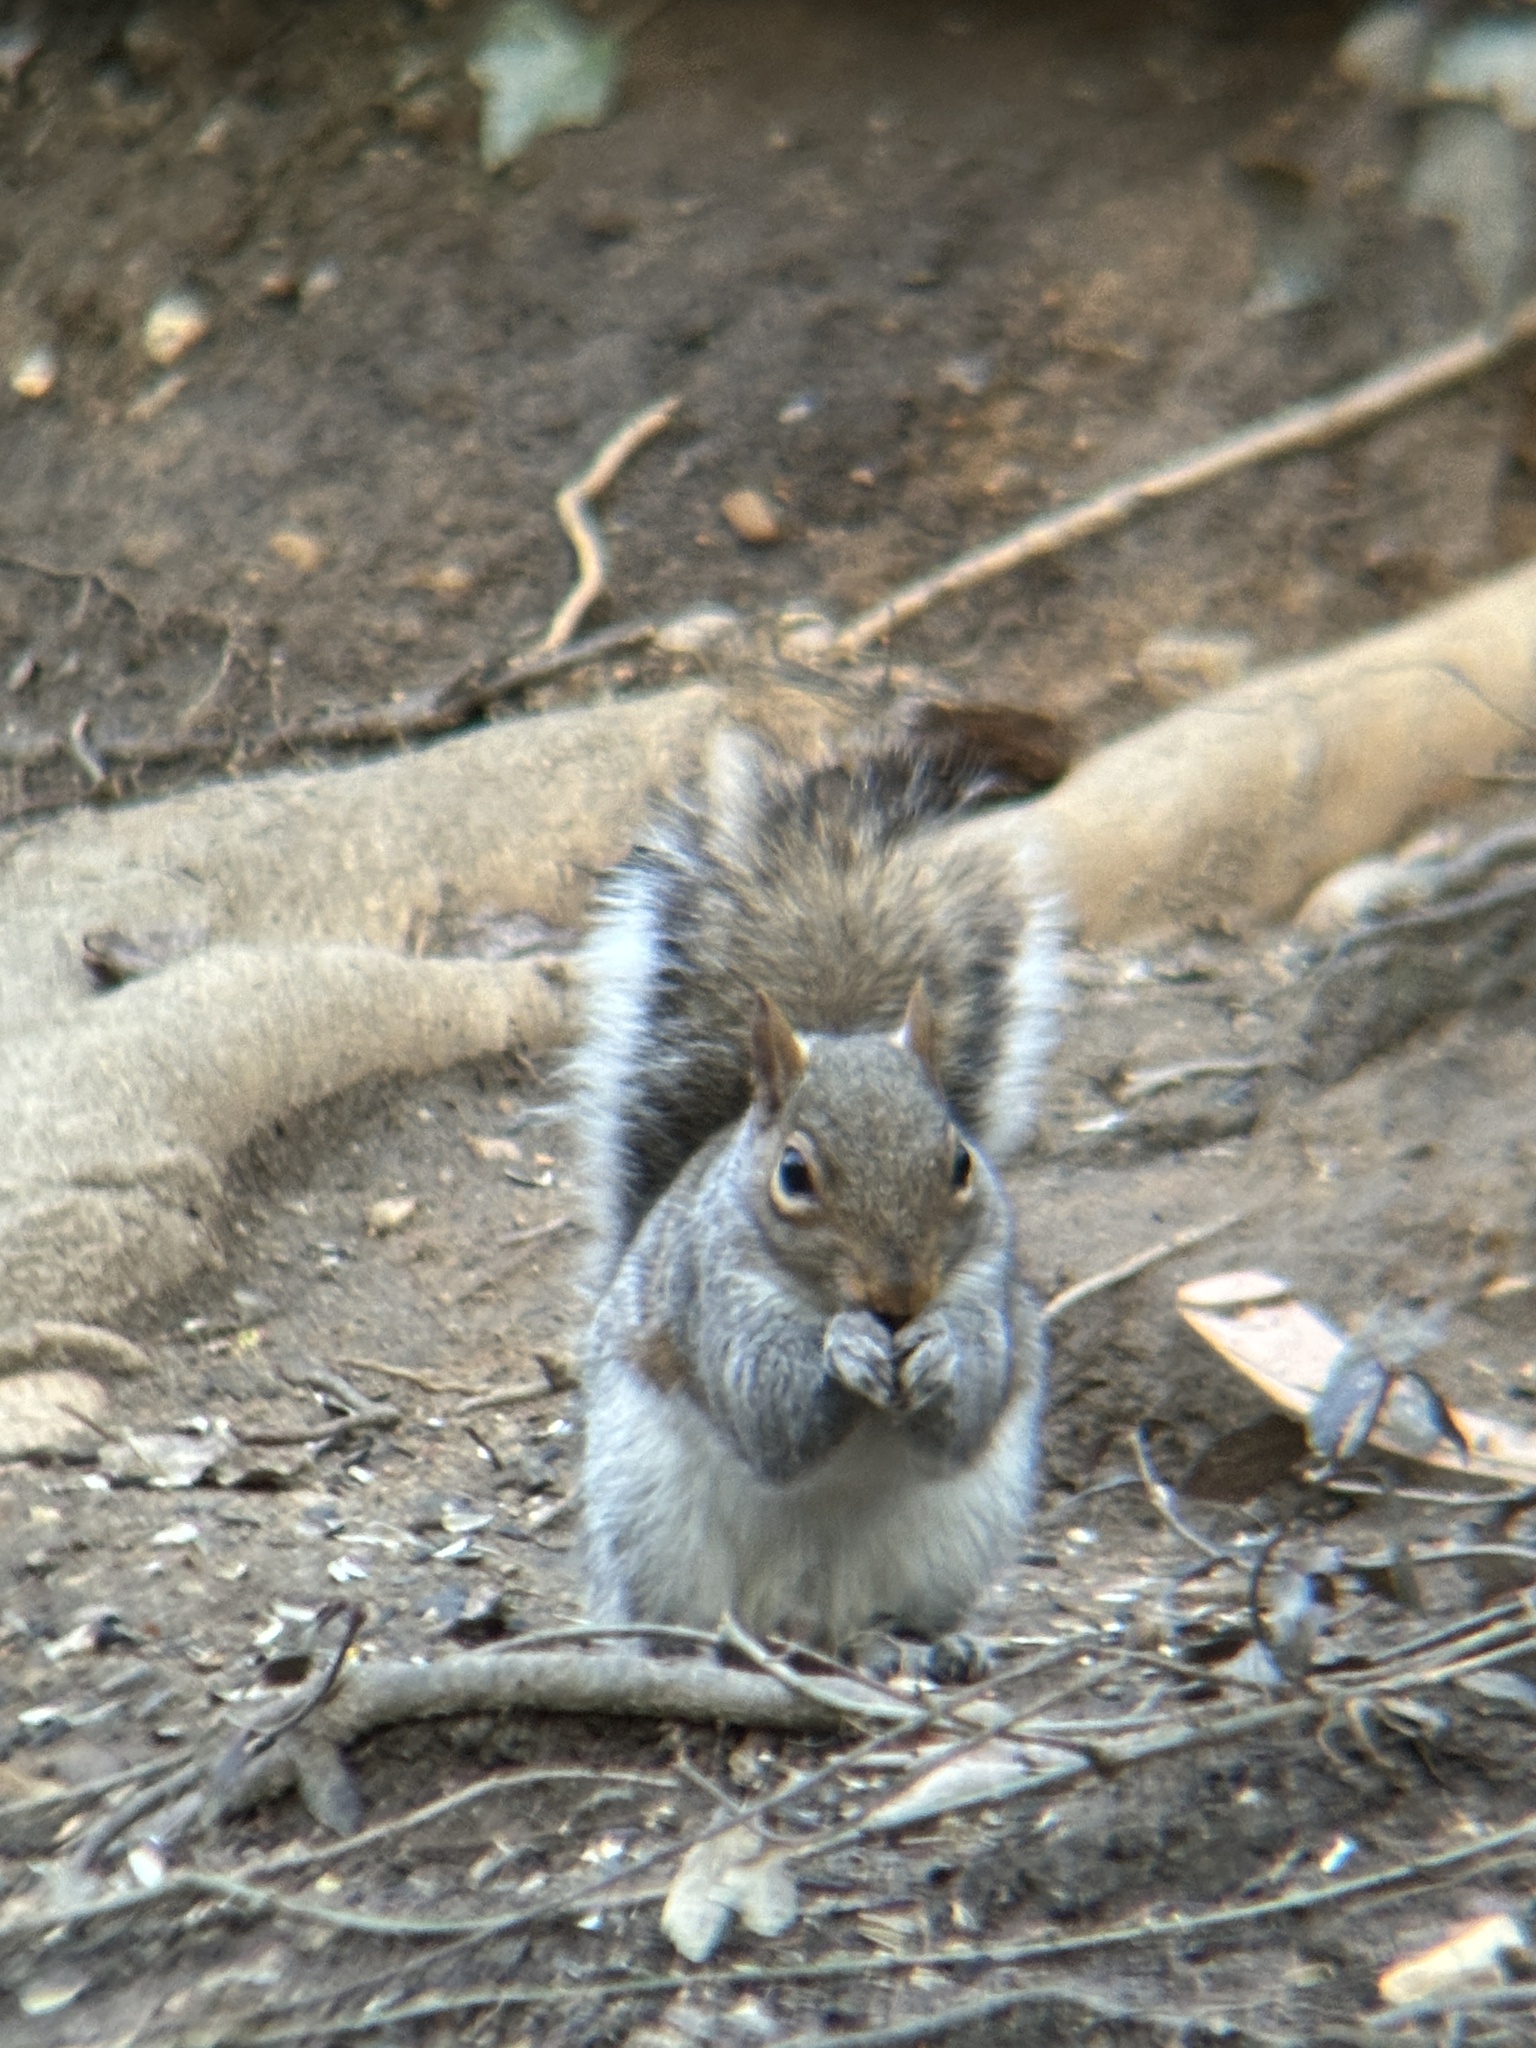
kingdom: Animalia
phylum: Chordata
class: Mammalia
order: Rodentia
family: Sciuridae
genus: Sciurus
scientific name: Sciurus carolinensis
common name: Eastern gray squirrel
